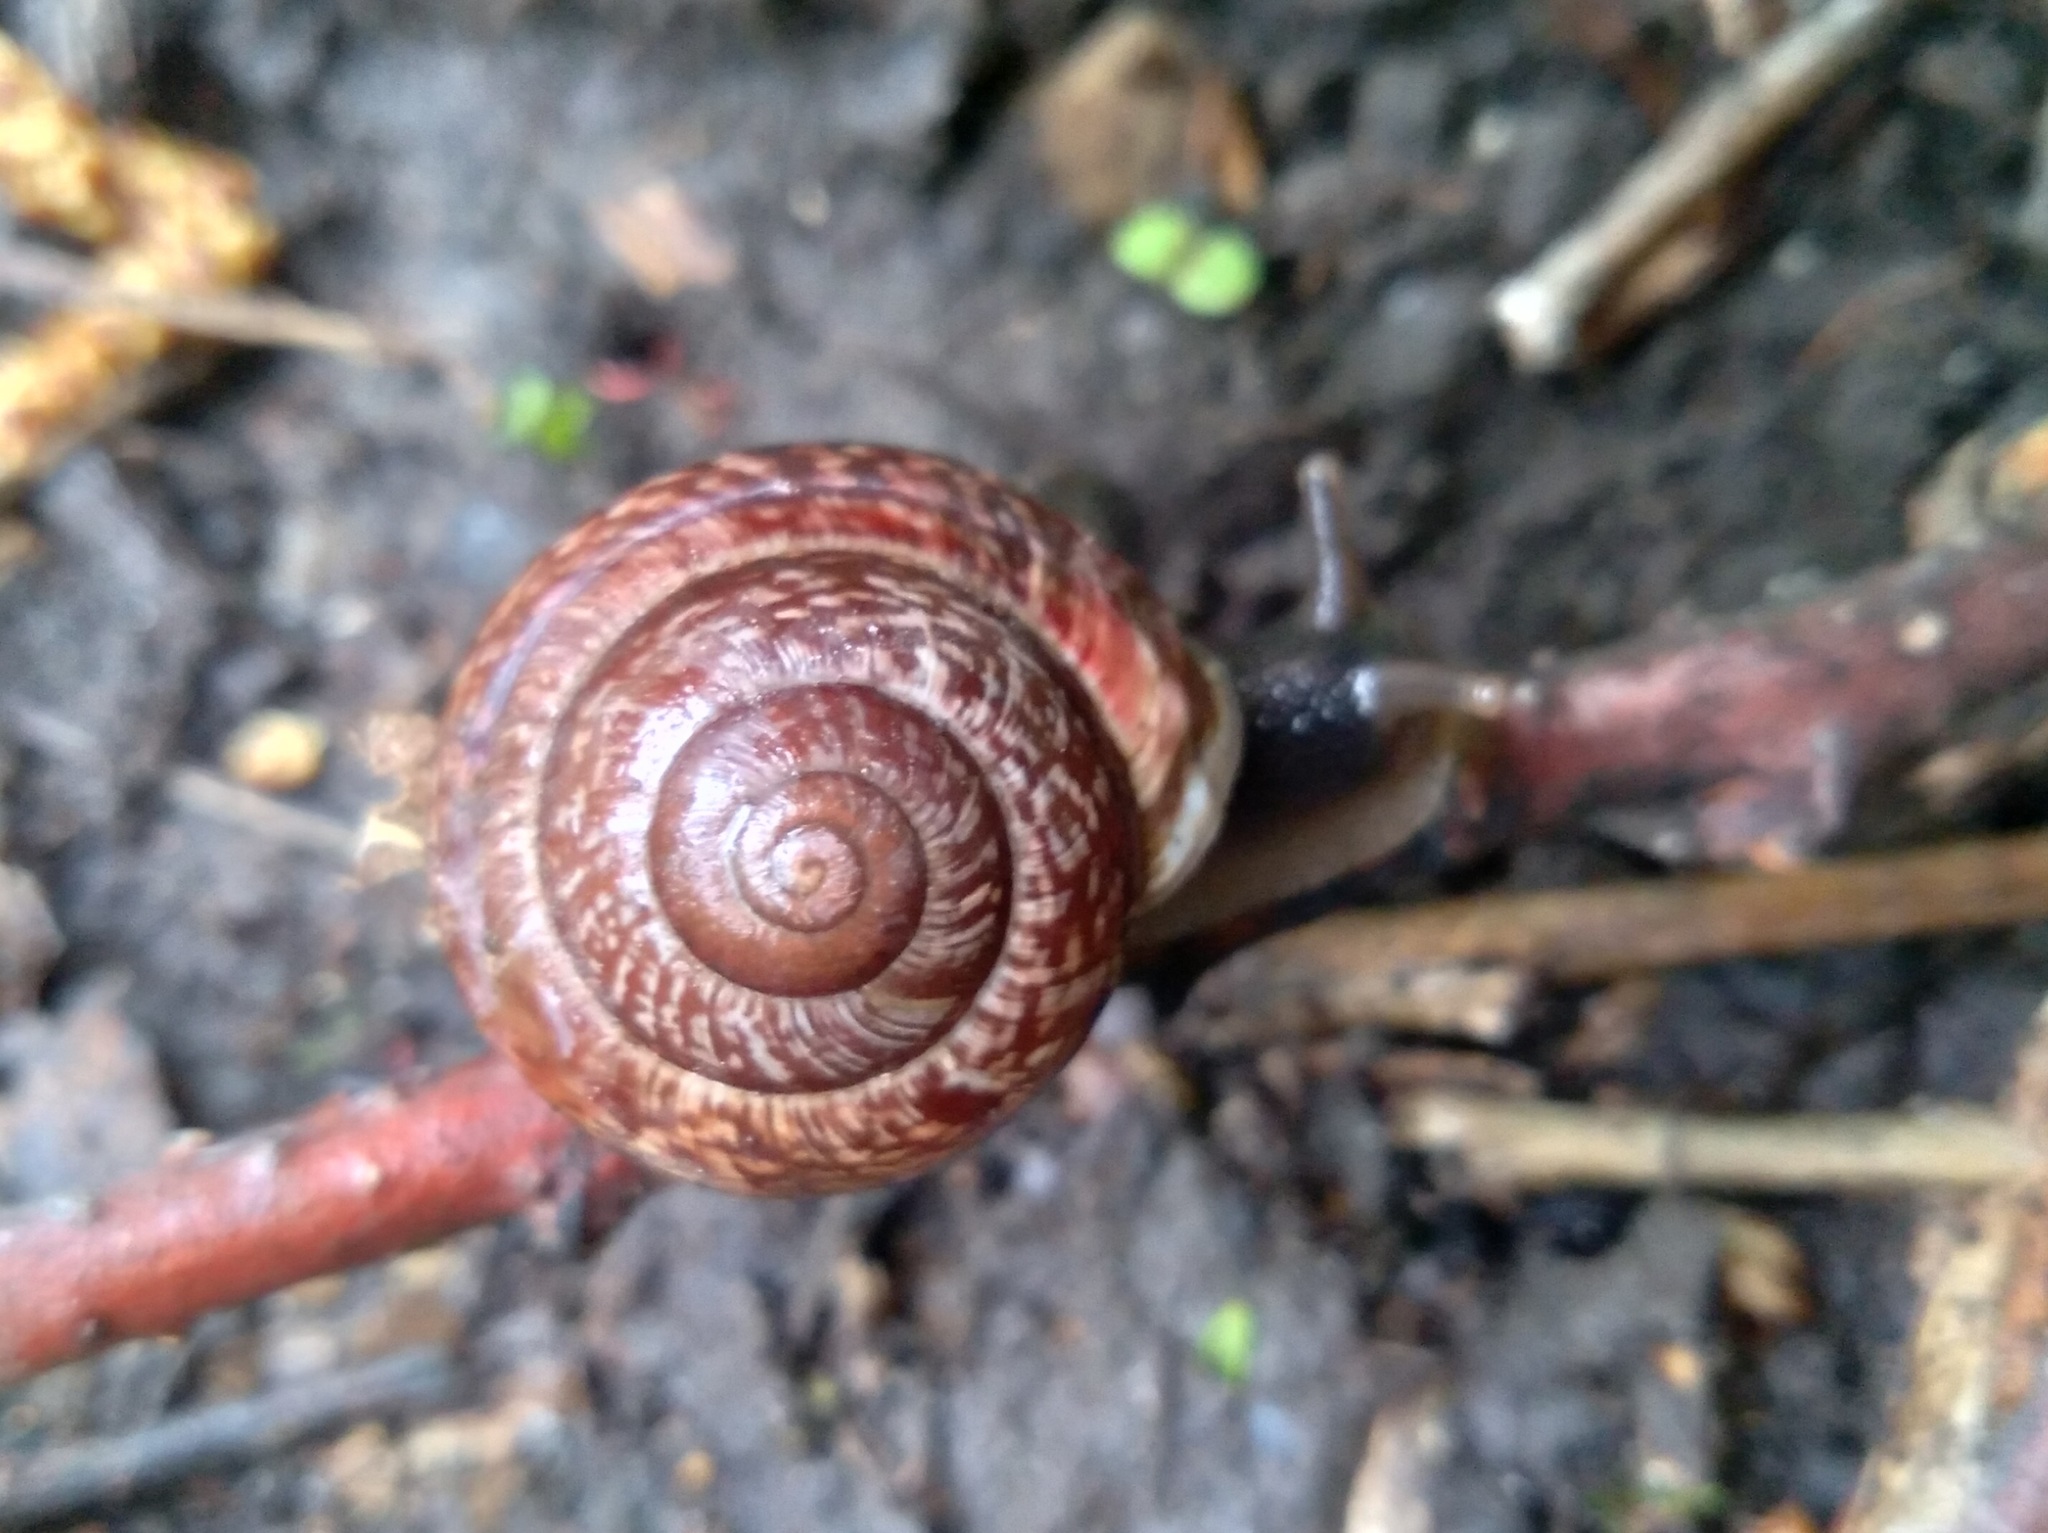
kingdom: Animalia
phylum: Mollusca
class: Gastropoda
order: Stylommatophora
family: Helicidae
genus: Arianta
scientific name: Arianta arbustorum
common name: Copse snail
